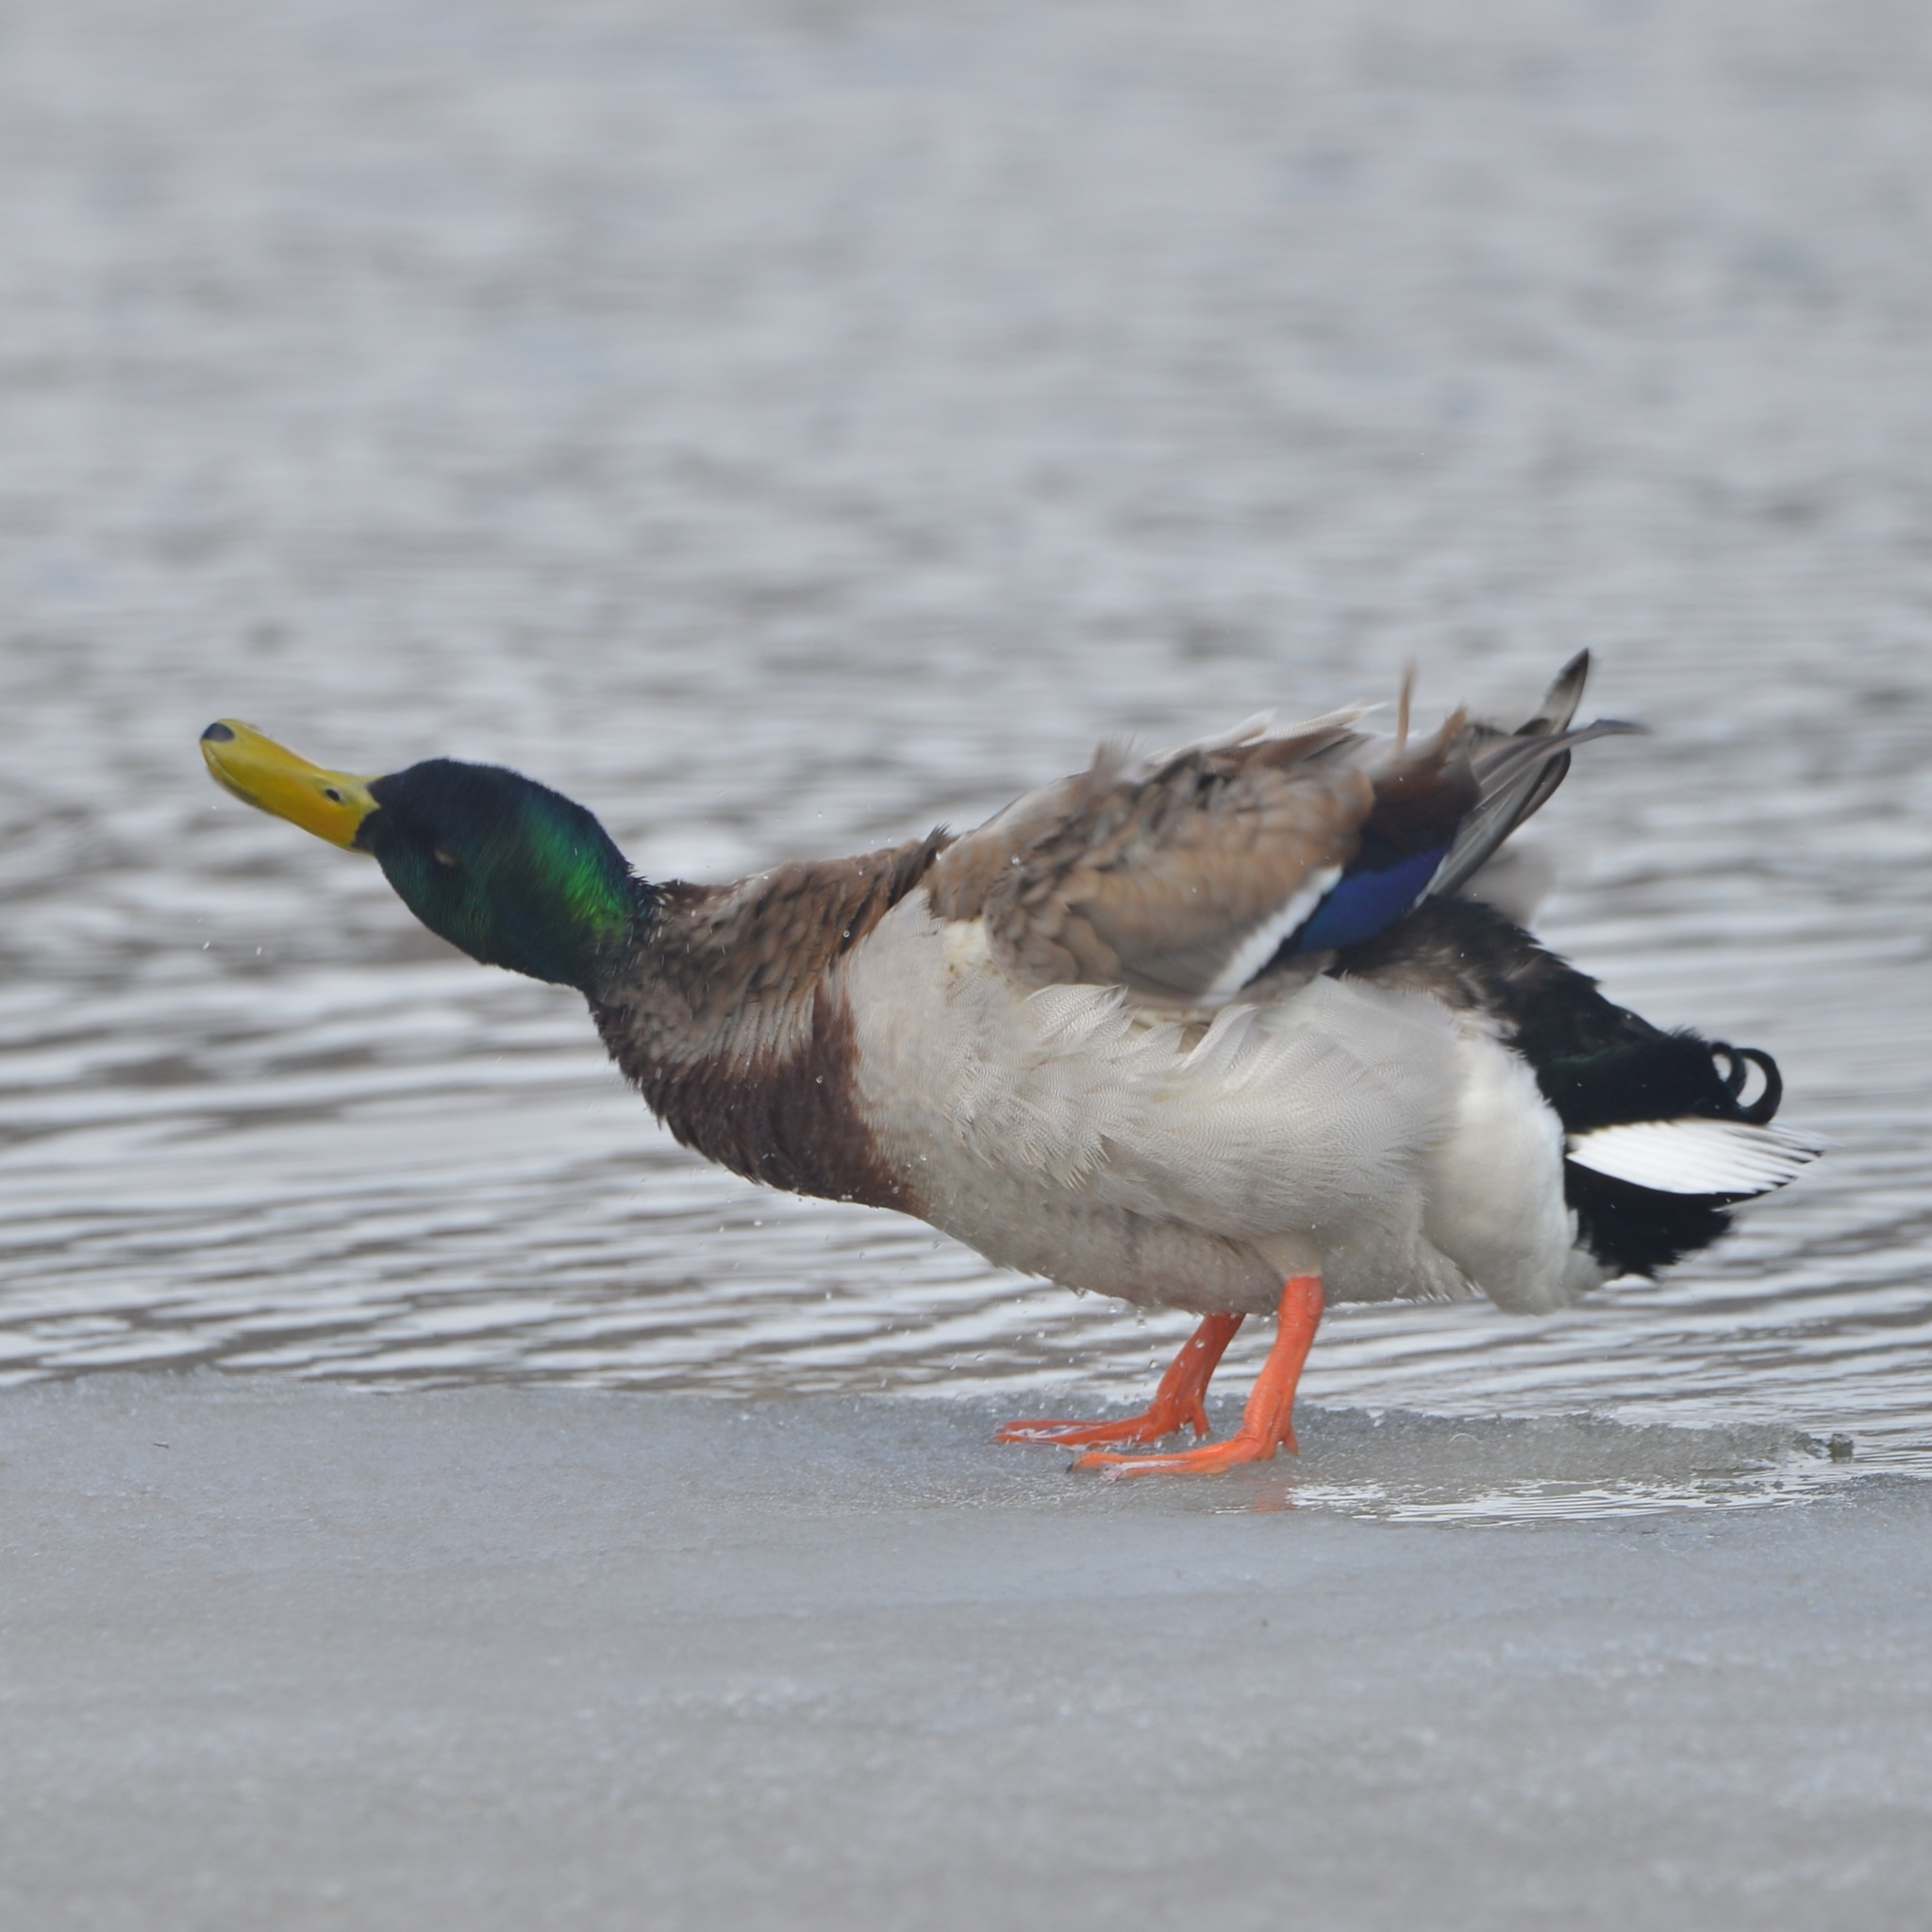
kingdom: Animalia
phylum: Chordata
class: Aves
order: Anseriformes
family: Anatidae
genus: Anas
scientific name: Anas platyrhynchos
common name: Mallard
